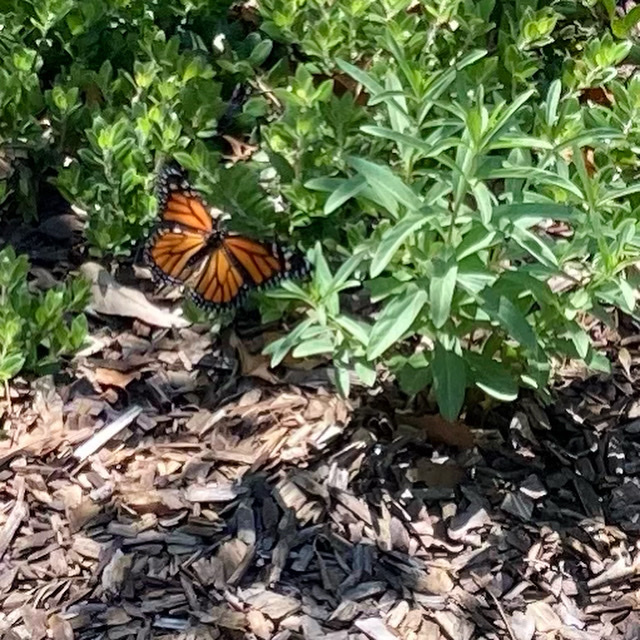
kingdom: Animalia
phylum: Arthropoda
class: Insecta
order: Lepidoptera
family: Nymphalidae
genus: Danaus
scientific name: Danaus plexippus
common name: Monarch
